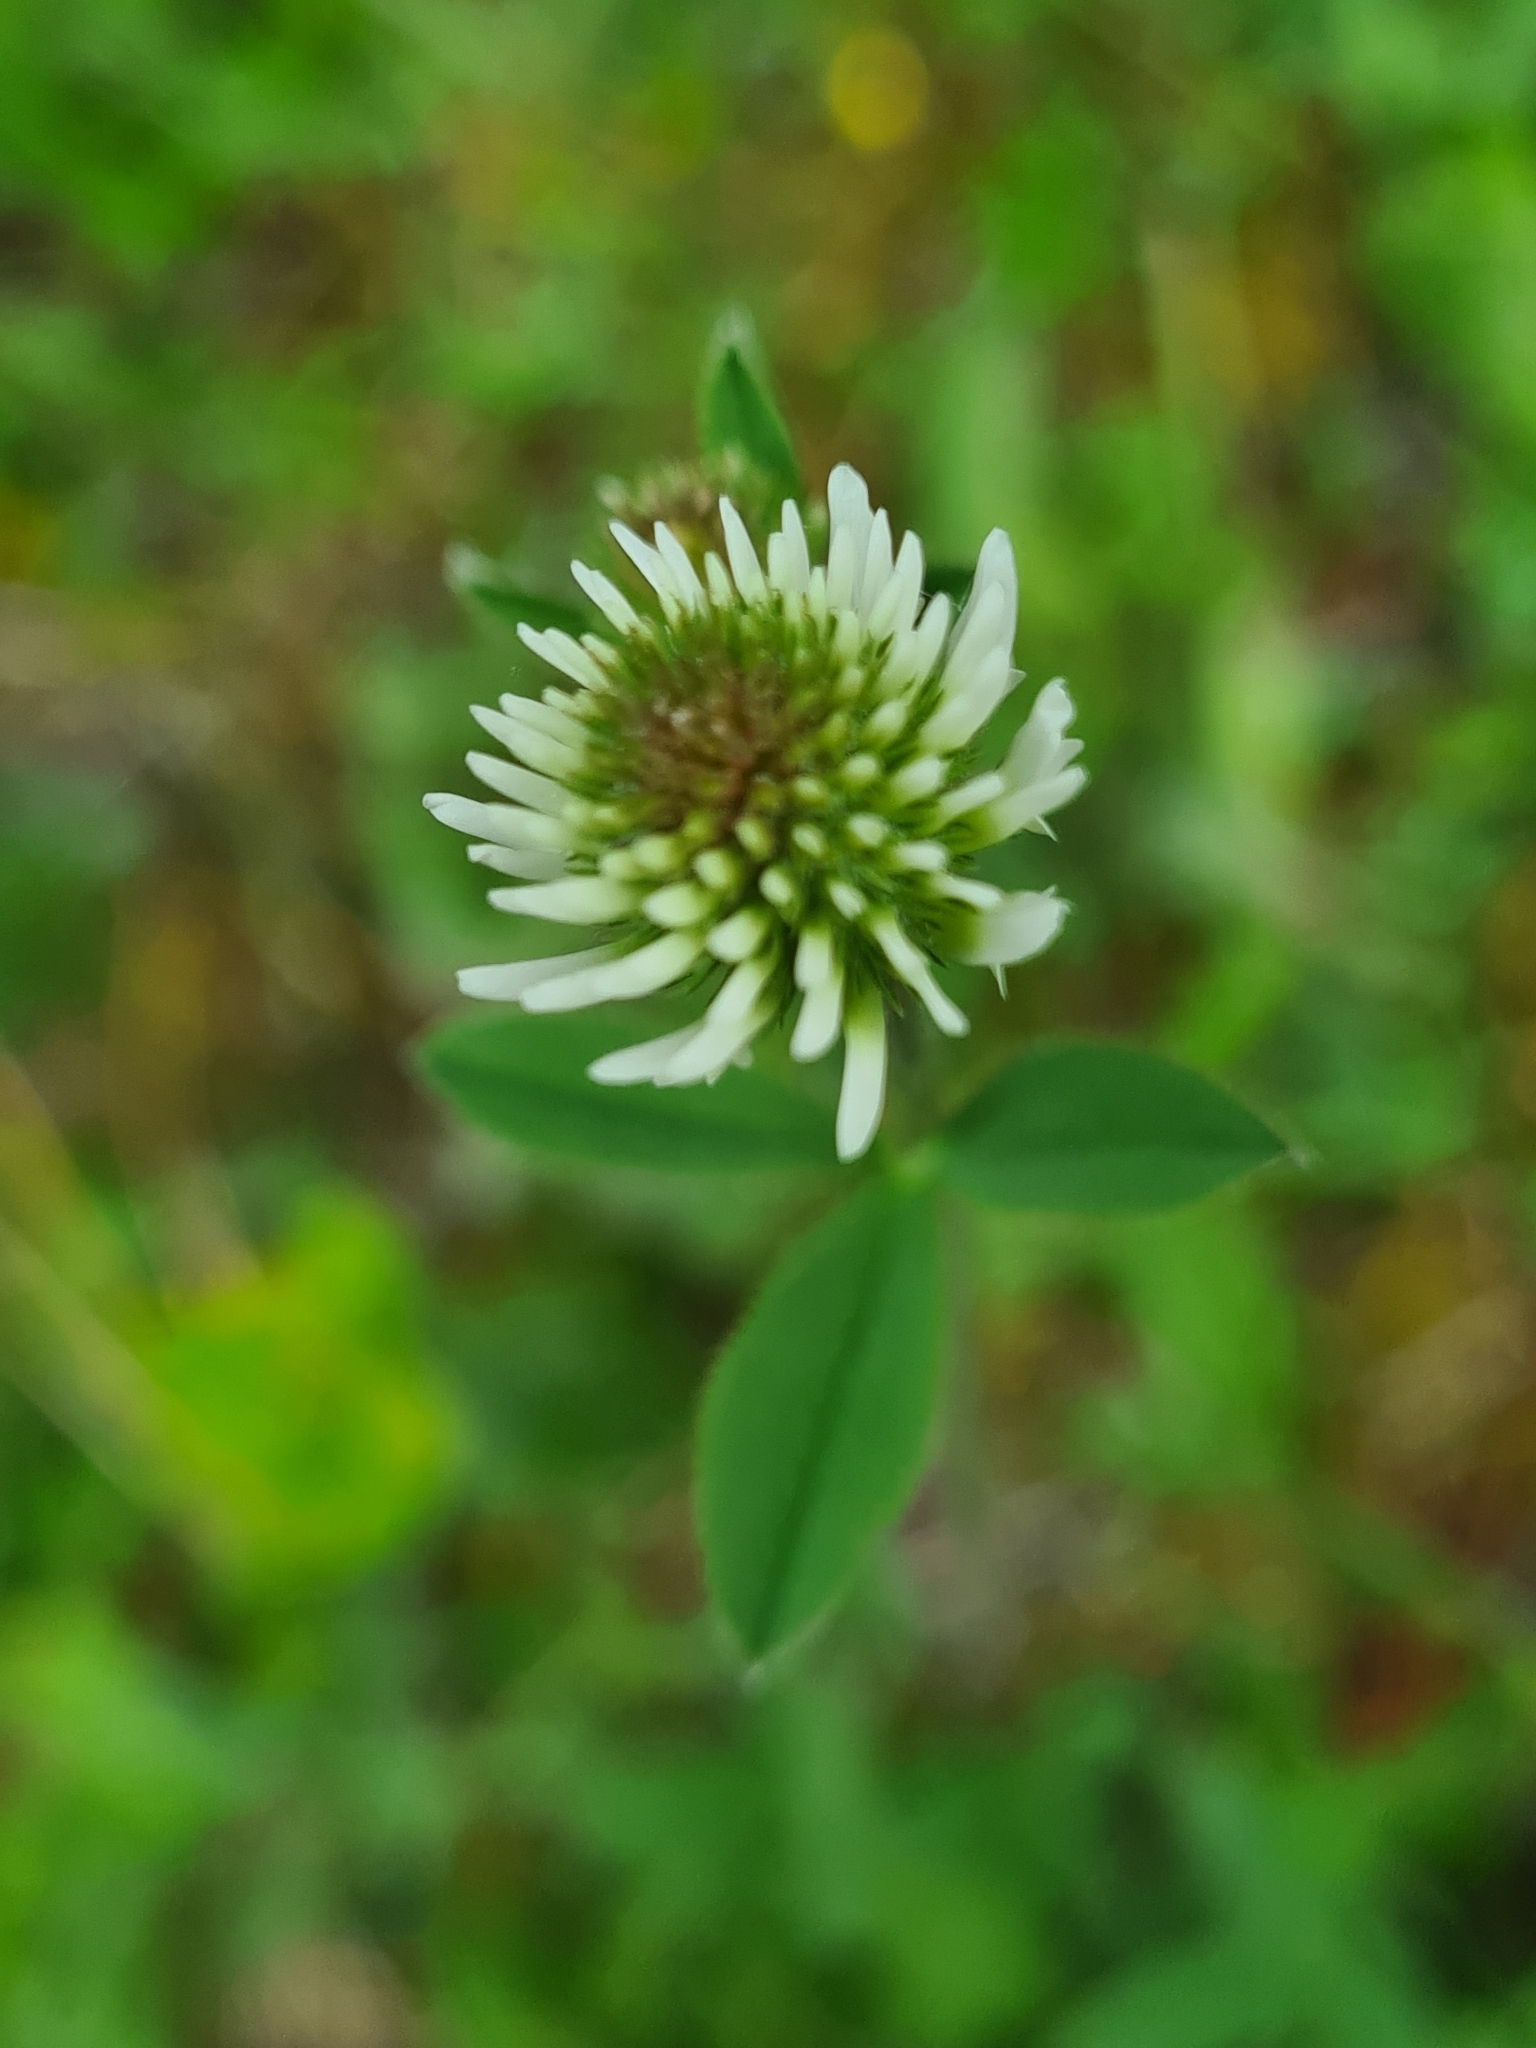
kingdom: Plantae
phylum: Tracheophyta
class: Magnoliopsida
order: Fabales
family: Fabaceae
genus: Trifolium
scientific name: Trifolium montanum
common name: Mountain clover
